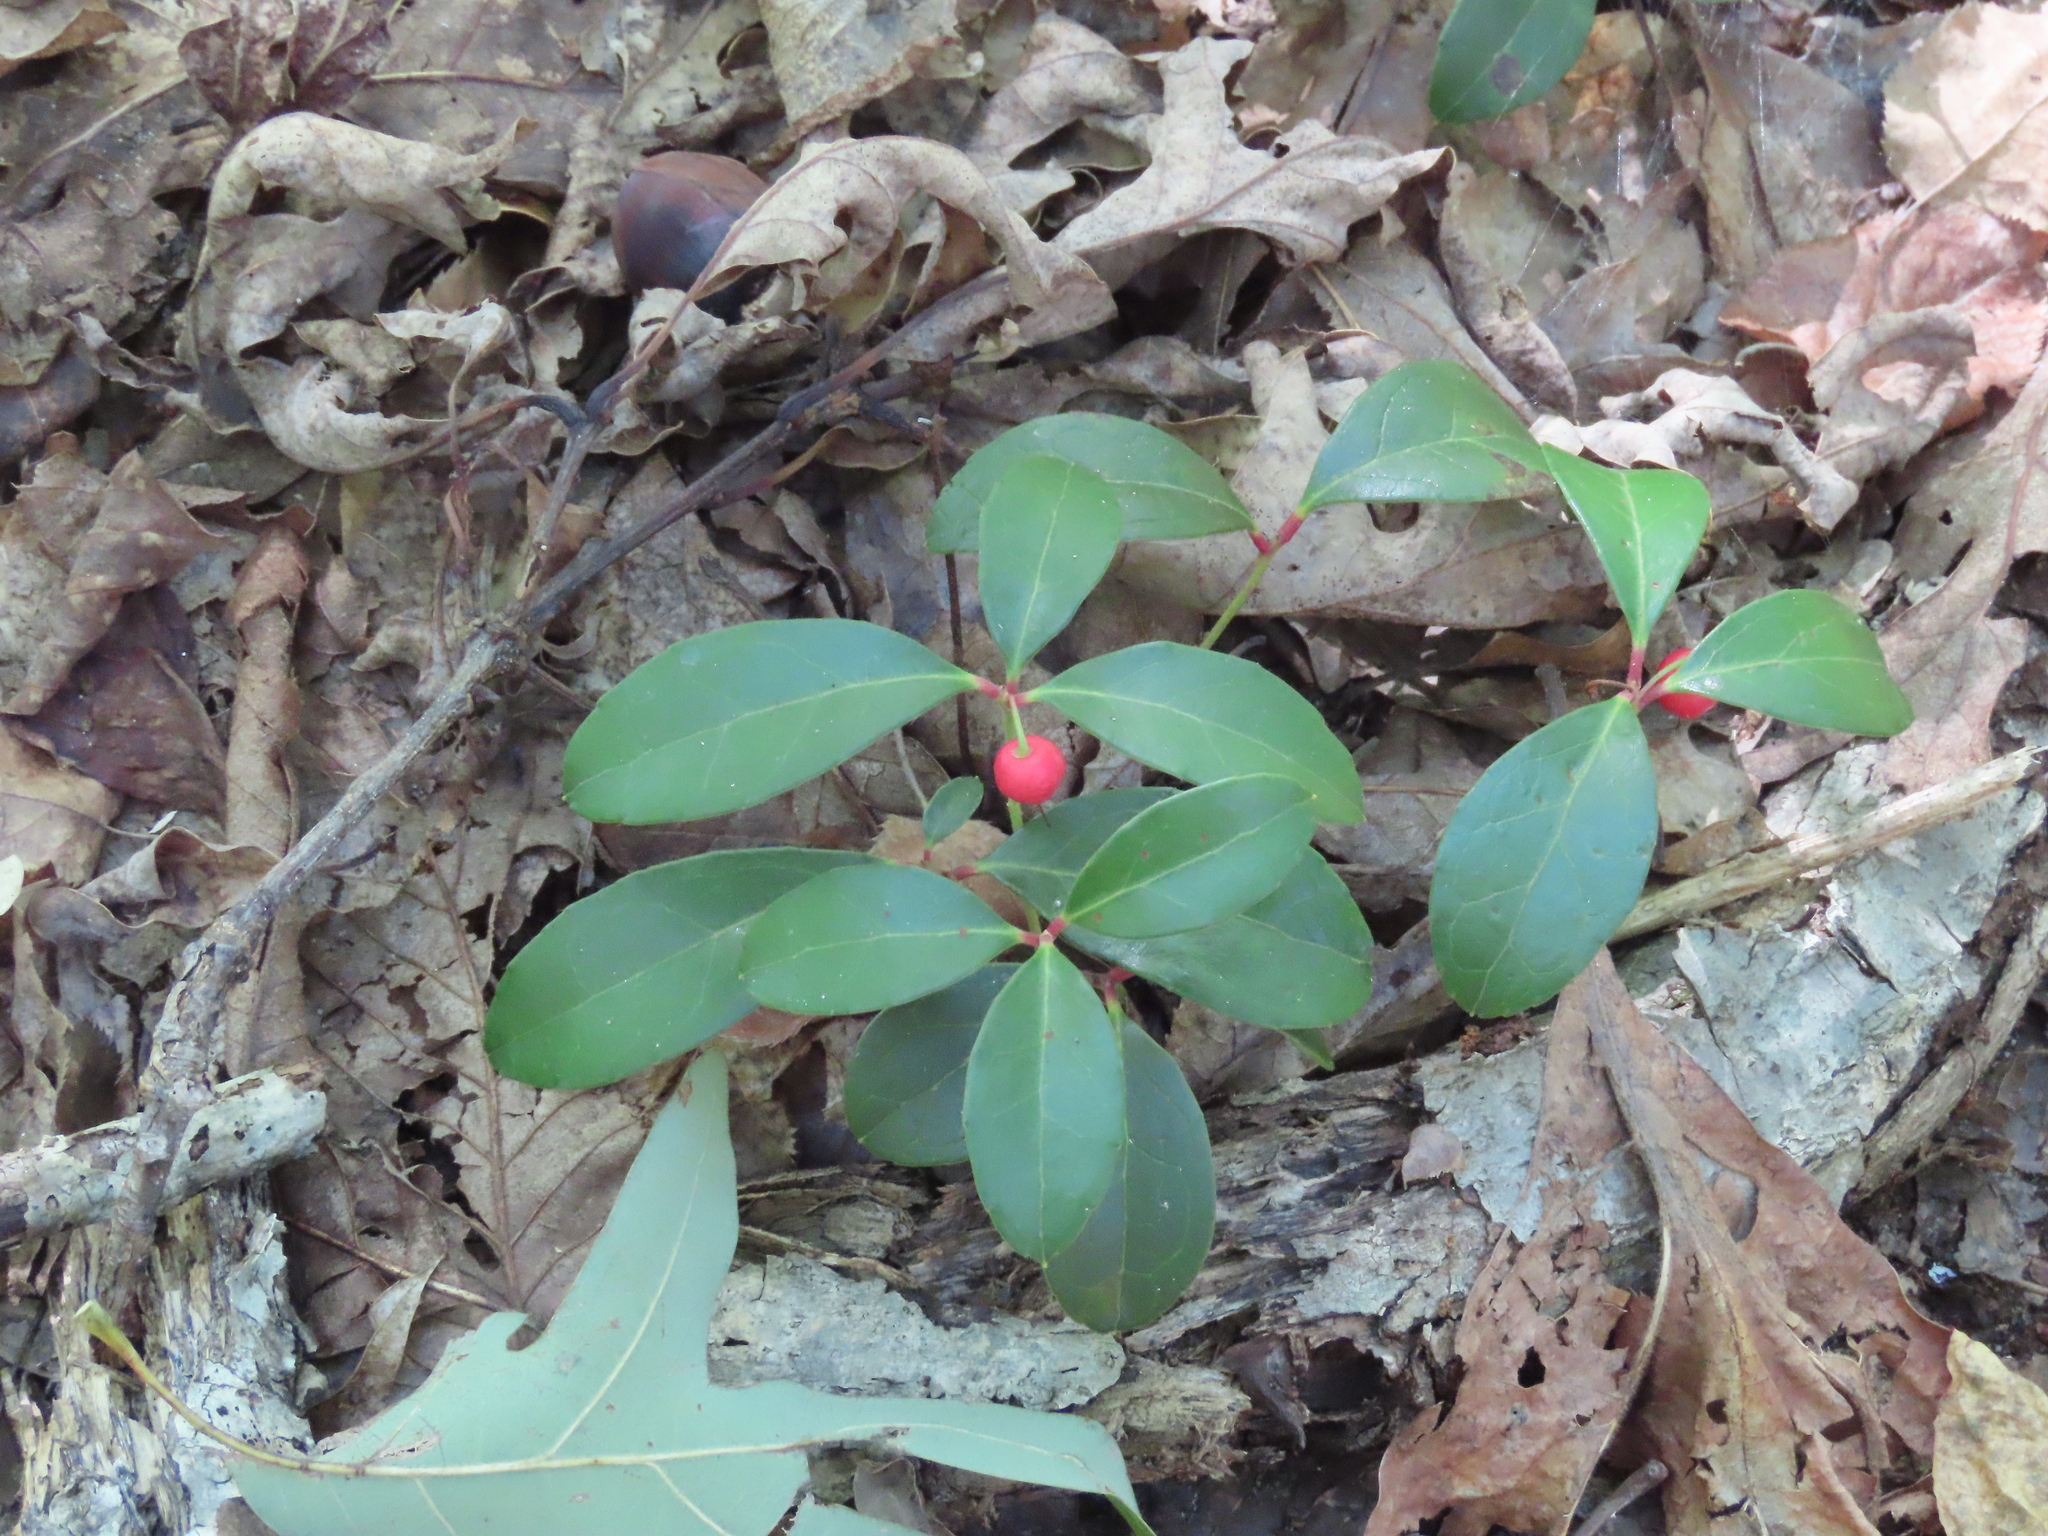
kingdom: Plantae
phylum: Tracheophyta
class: Magnoliopsida
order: Ericales
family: Ericaceae
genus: Gaultheria
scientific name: Gaultheria procumbens
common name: Checkerberry
